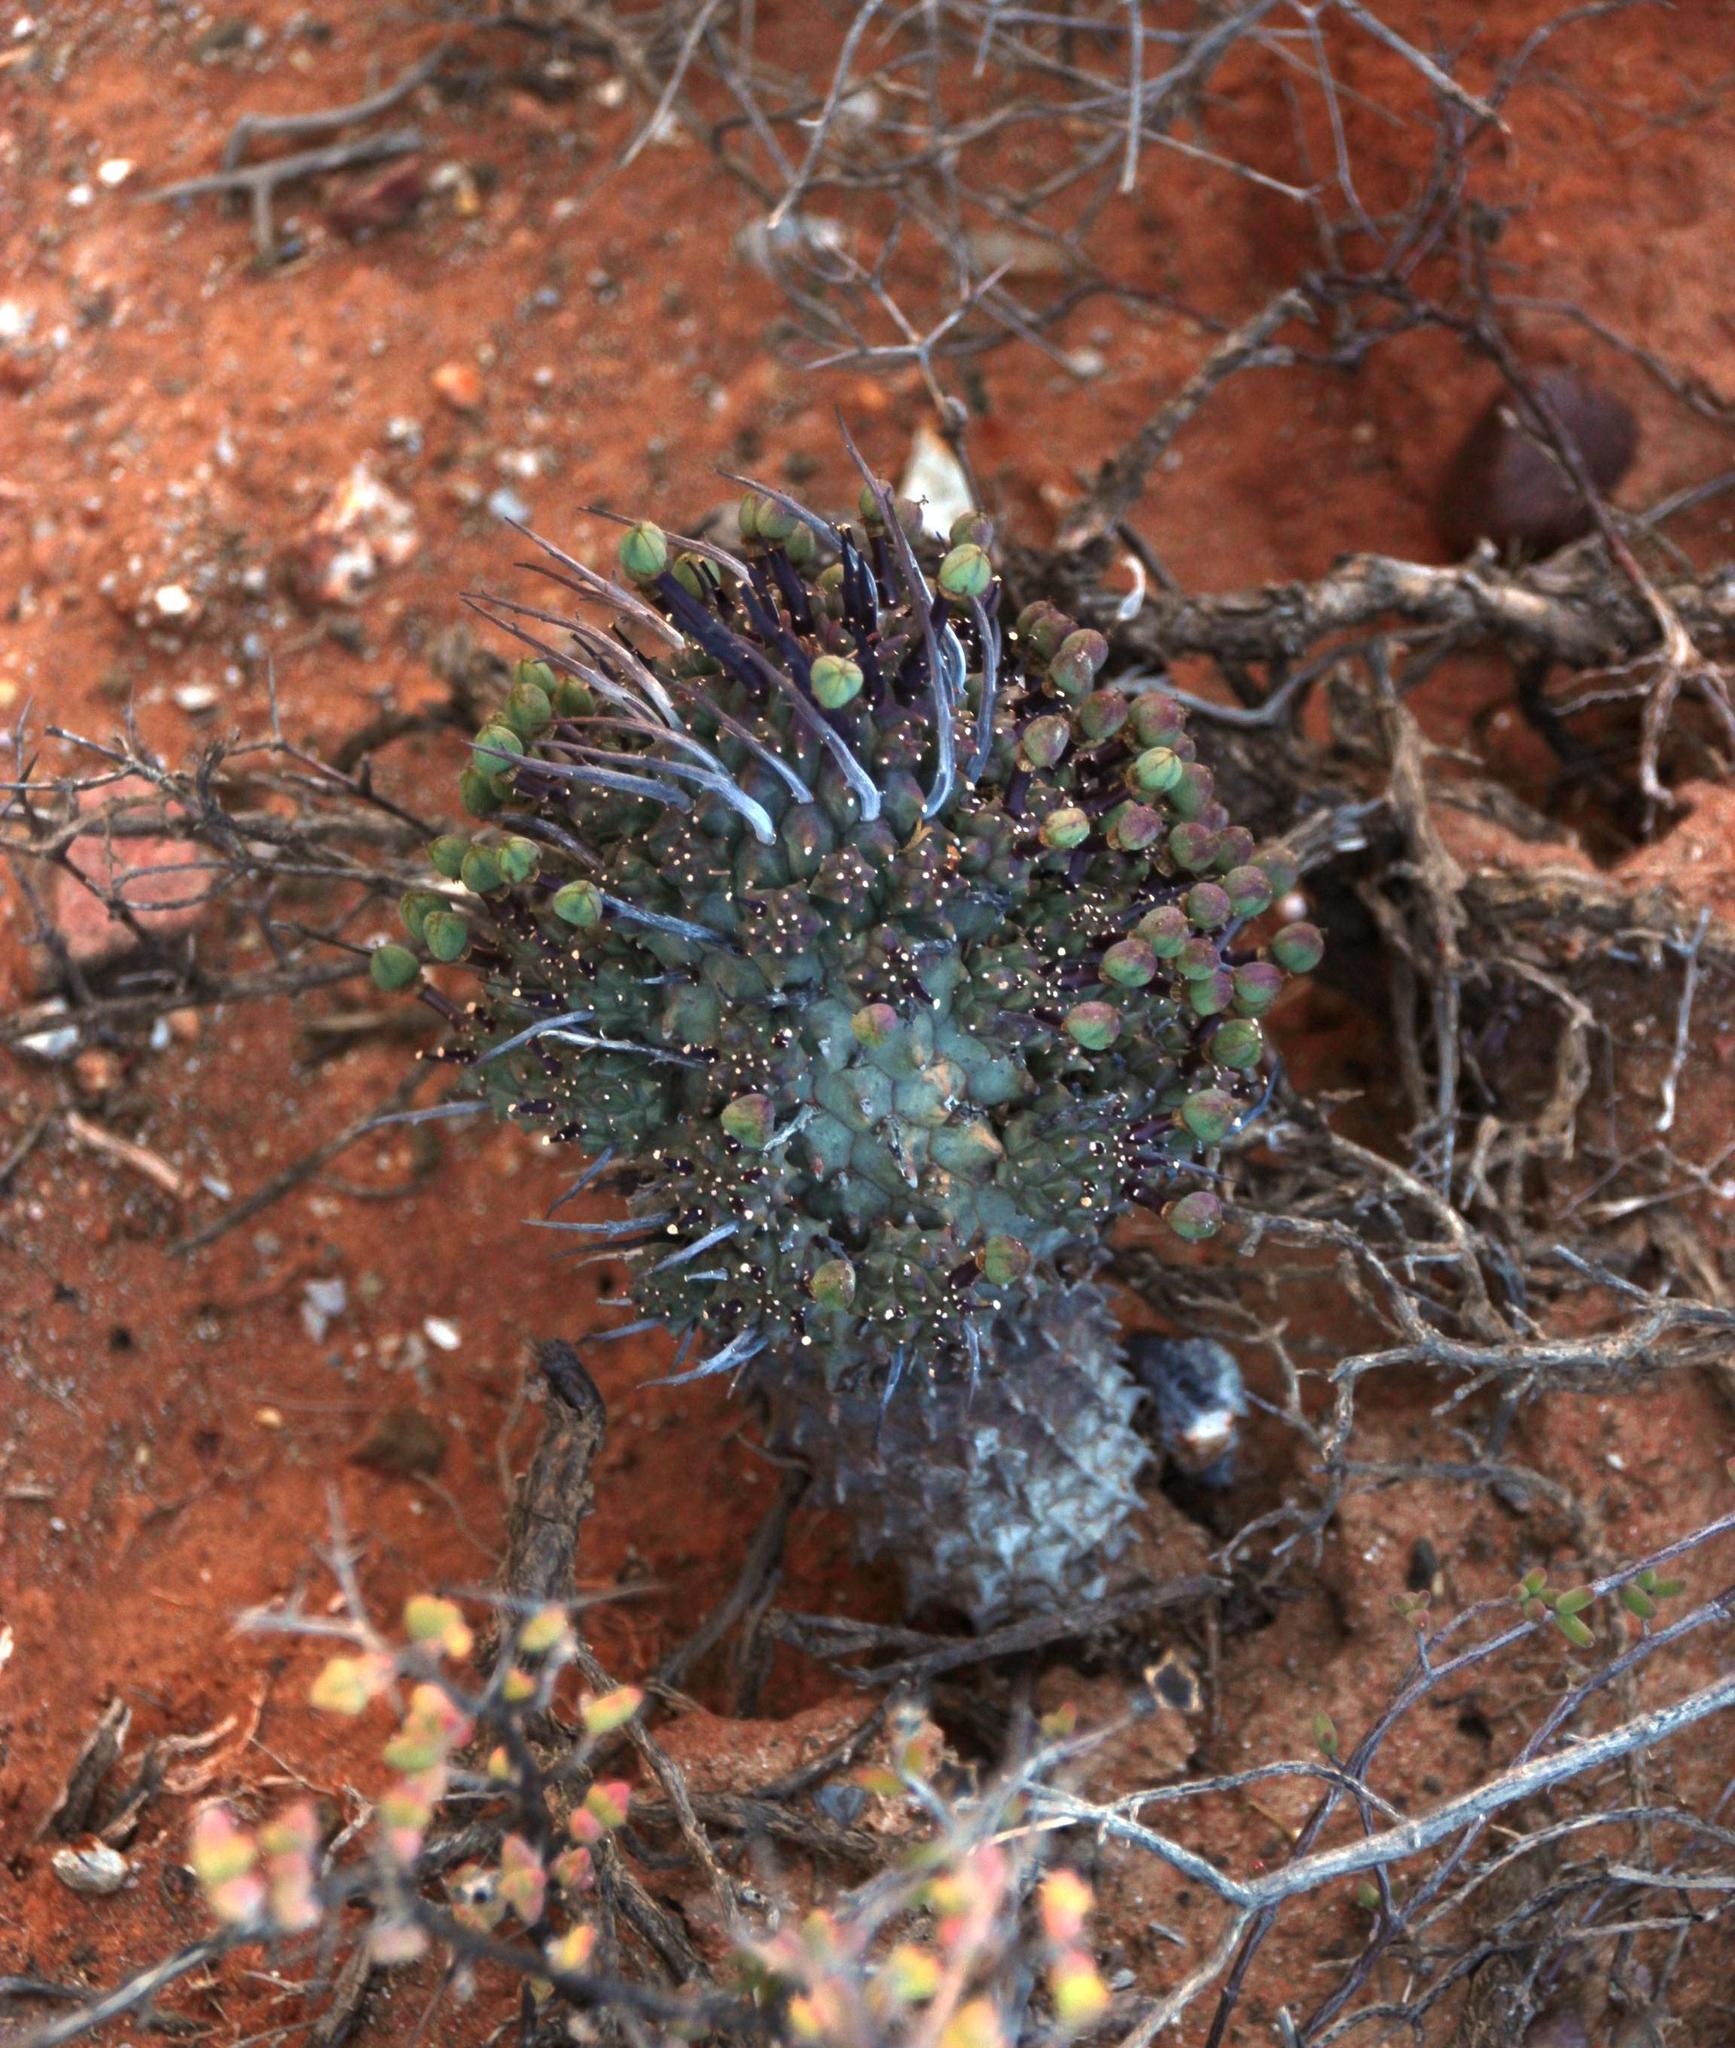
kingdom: Plantae
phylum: Tracheophyta
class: Magnoliopsida
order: Malpighiales
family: Euphorbiaceae
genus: Euphorbia
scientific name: Euphorbia braunsii
